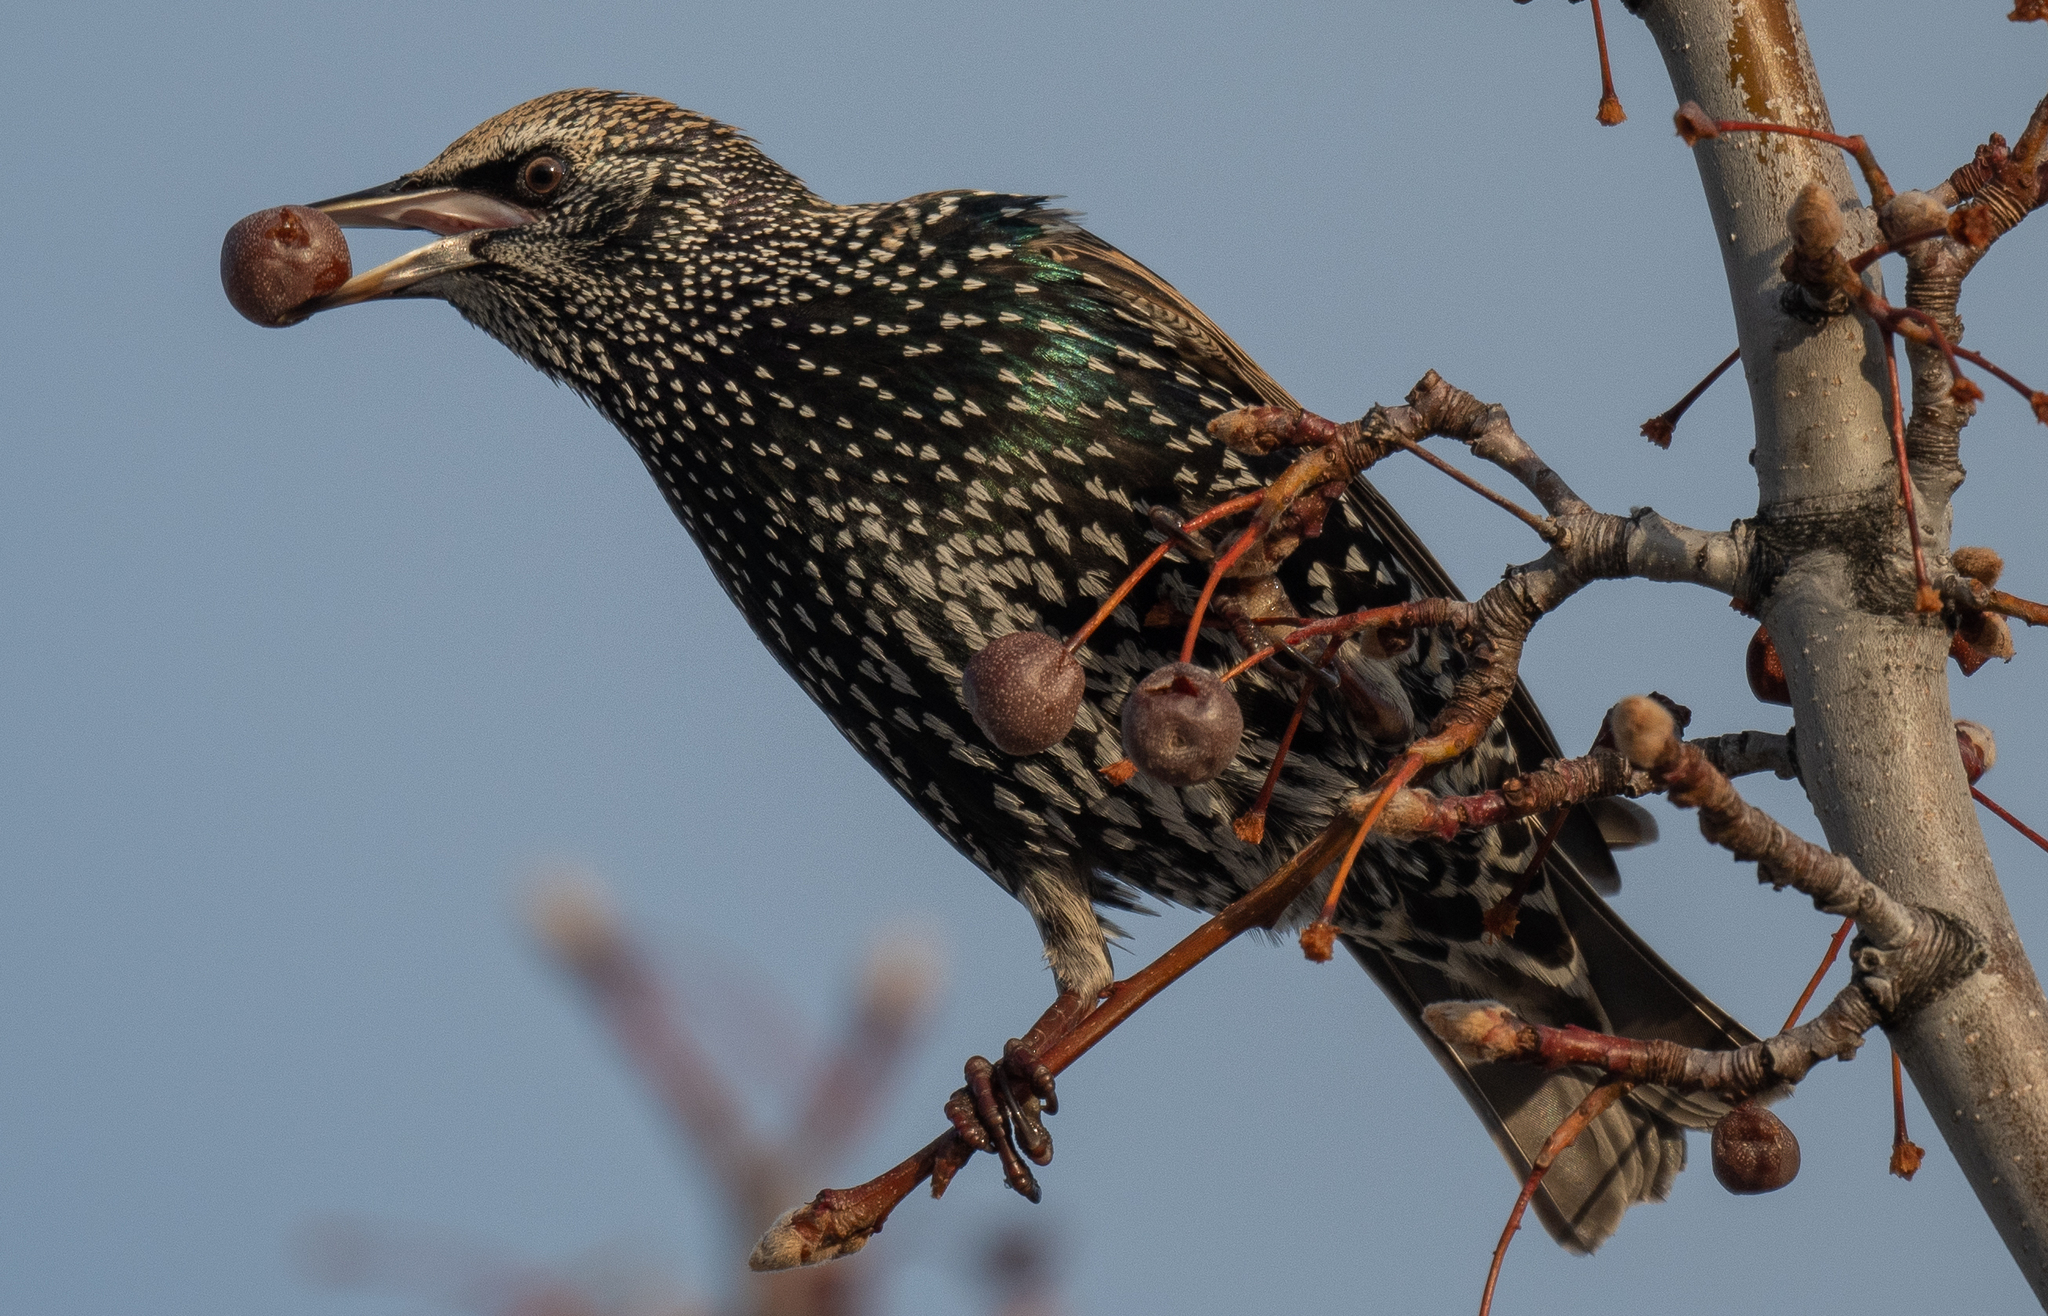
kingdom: Animalia
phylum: Chordata
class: Aves
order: Passeriformes
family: Sturnidae
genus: Sturnus
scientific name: Sturnus vulgaris
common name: Common starling
